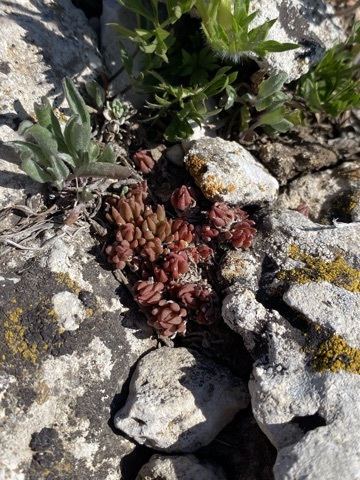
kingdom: Plantae
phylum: Tracheophyta
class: Magnoliopsida
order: Saxifragales
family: Crassulaceae
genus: Sedum
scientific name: Sedum lanceolatum
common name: Common stonecrop
